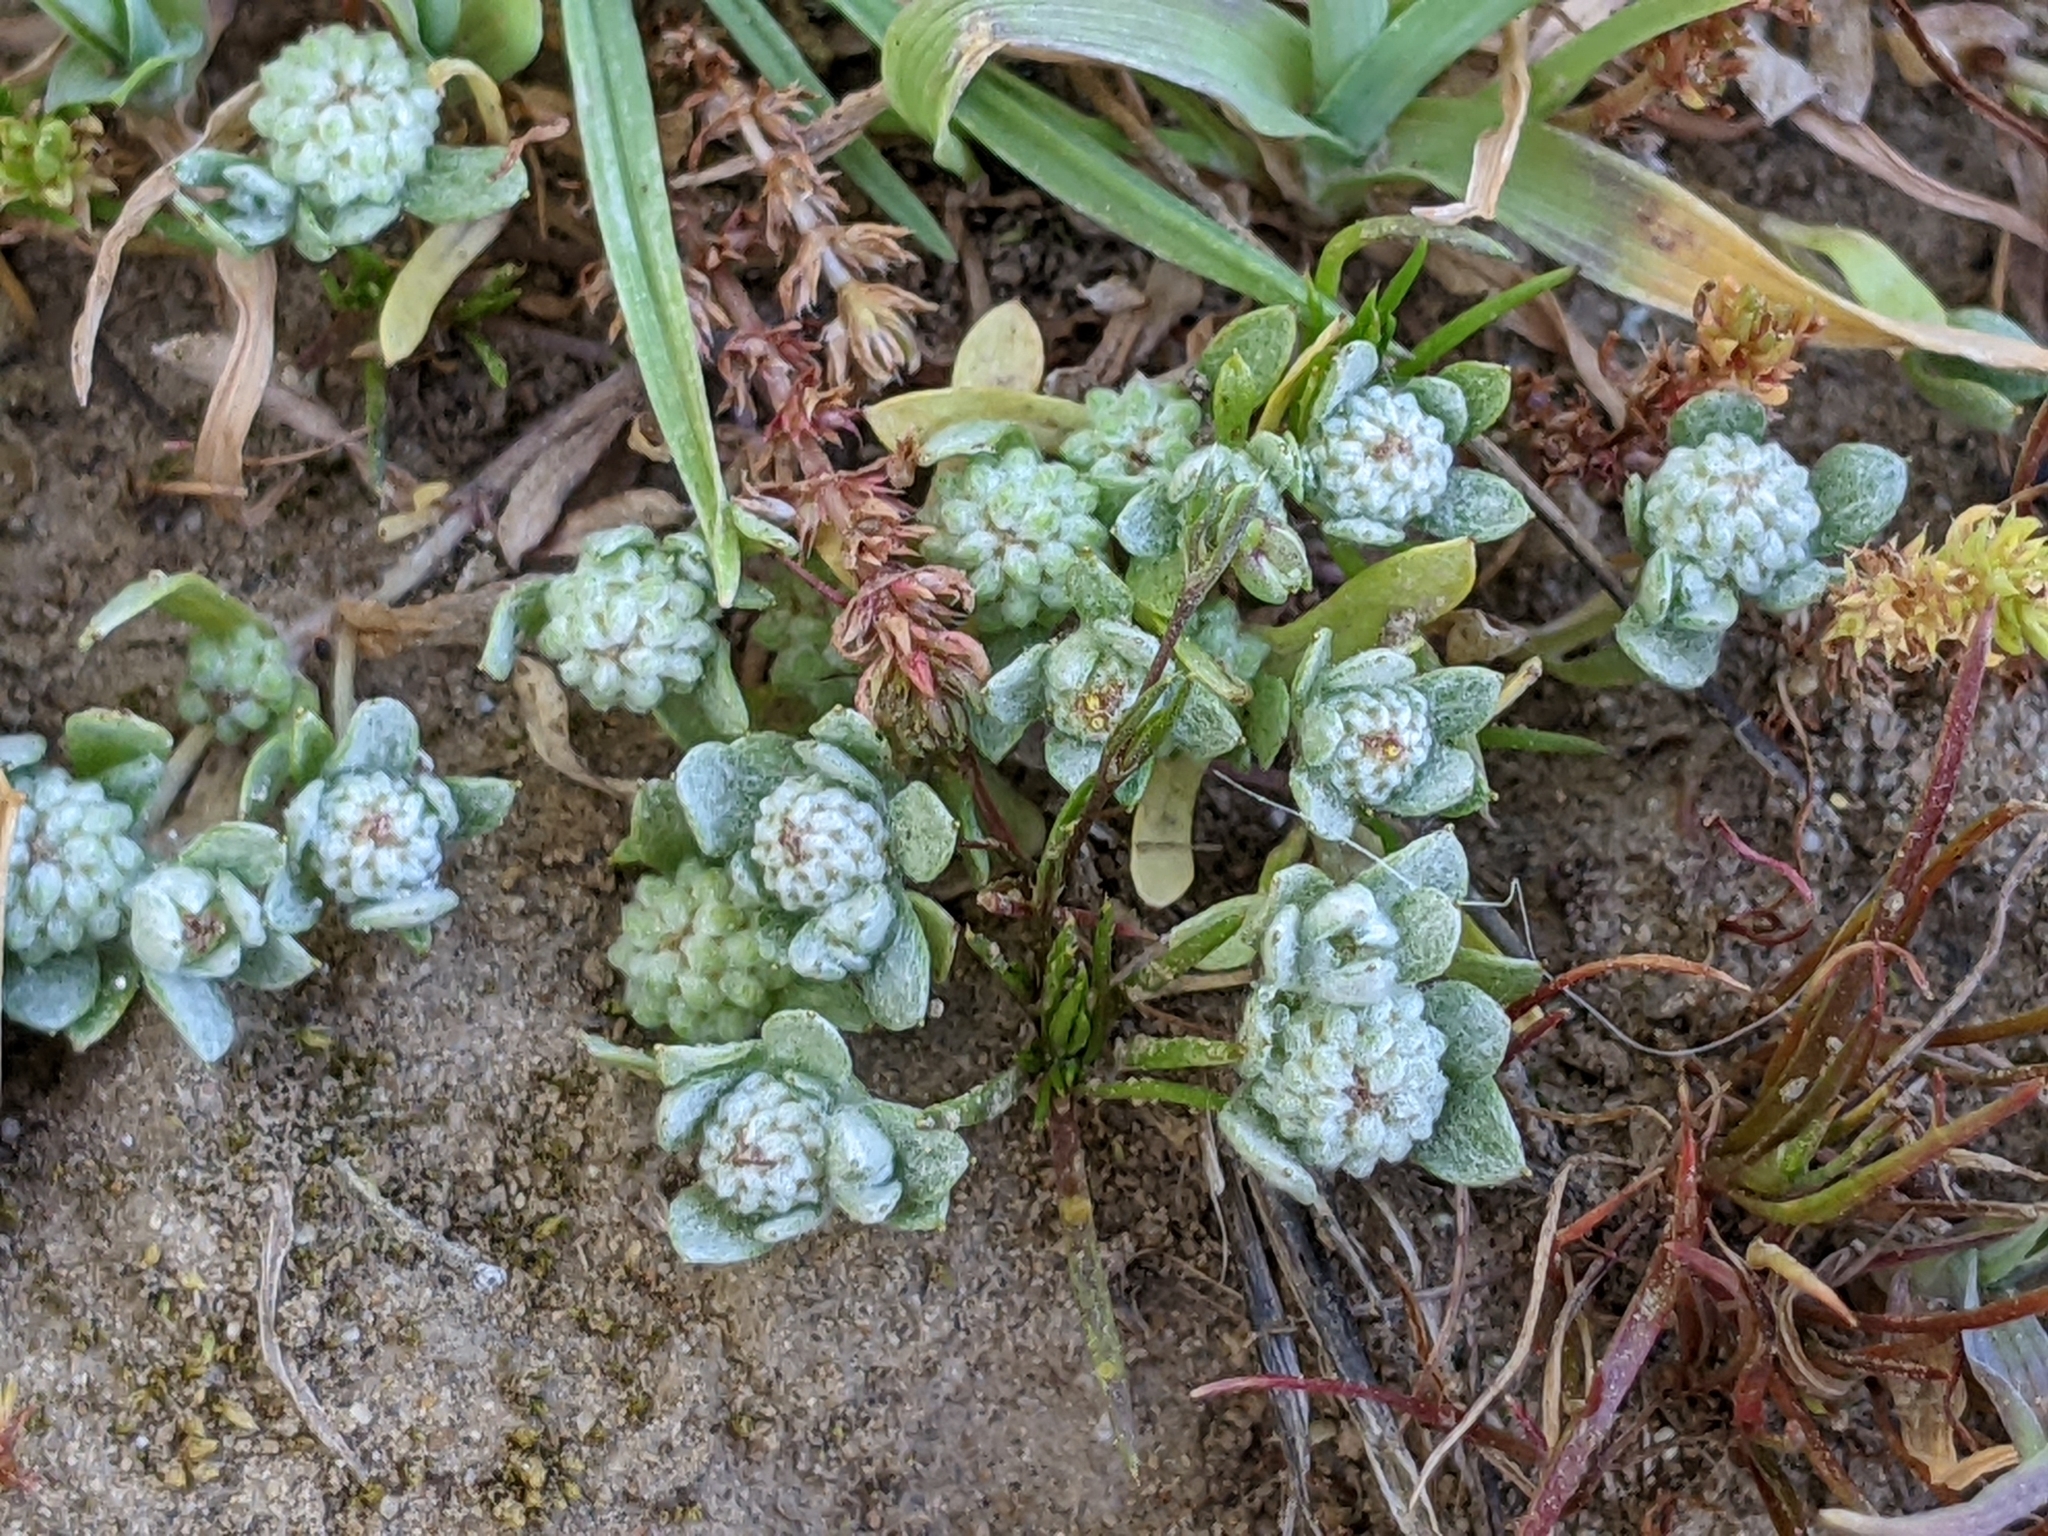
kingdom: Plantae
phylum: Tracheophyta
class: Magnoliopsida
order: Asterales
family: Asteraceae
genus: Psilocarphus
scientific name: Psilocarphus tenellus
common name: Slender woolly-marbles
